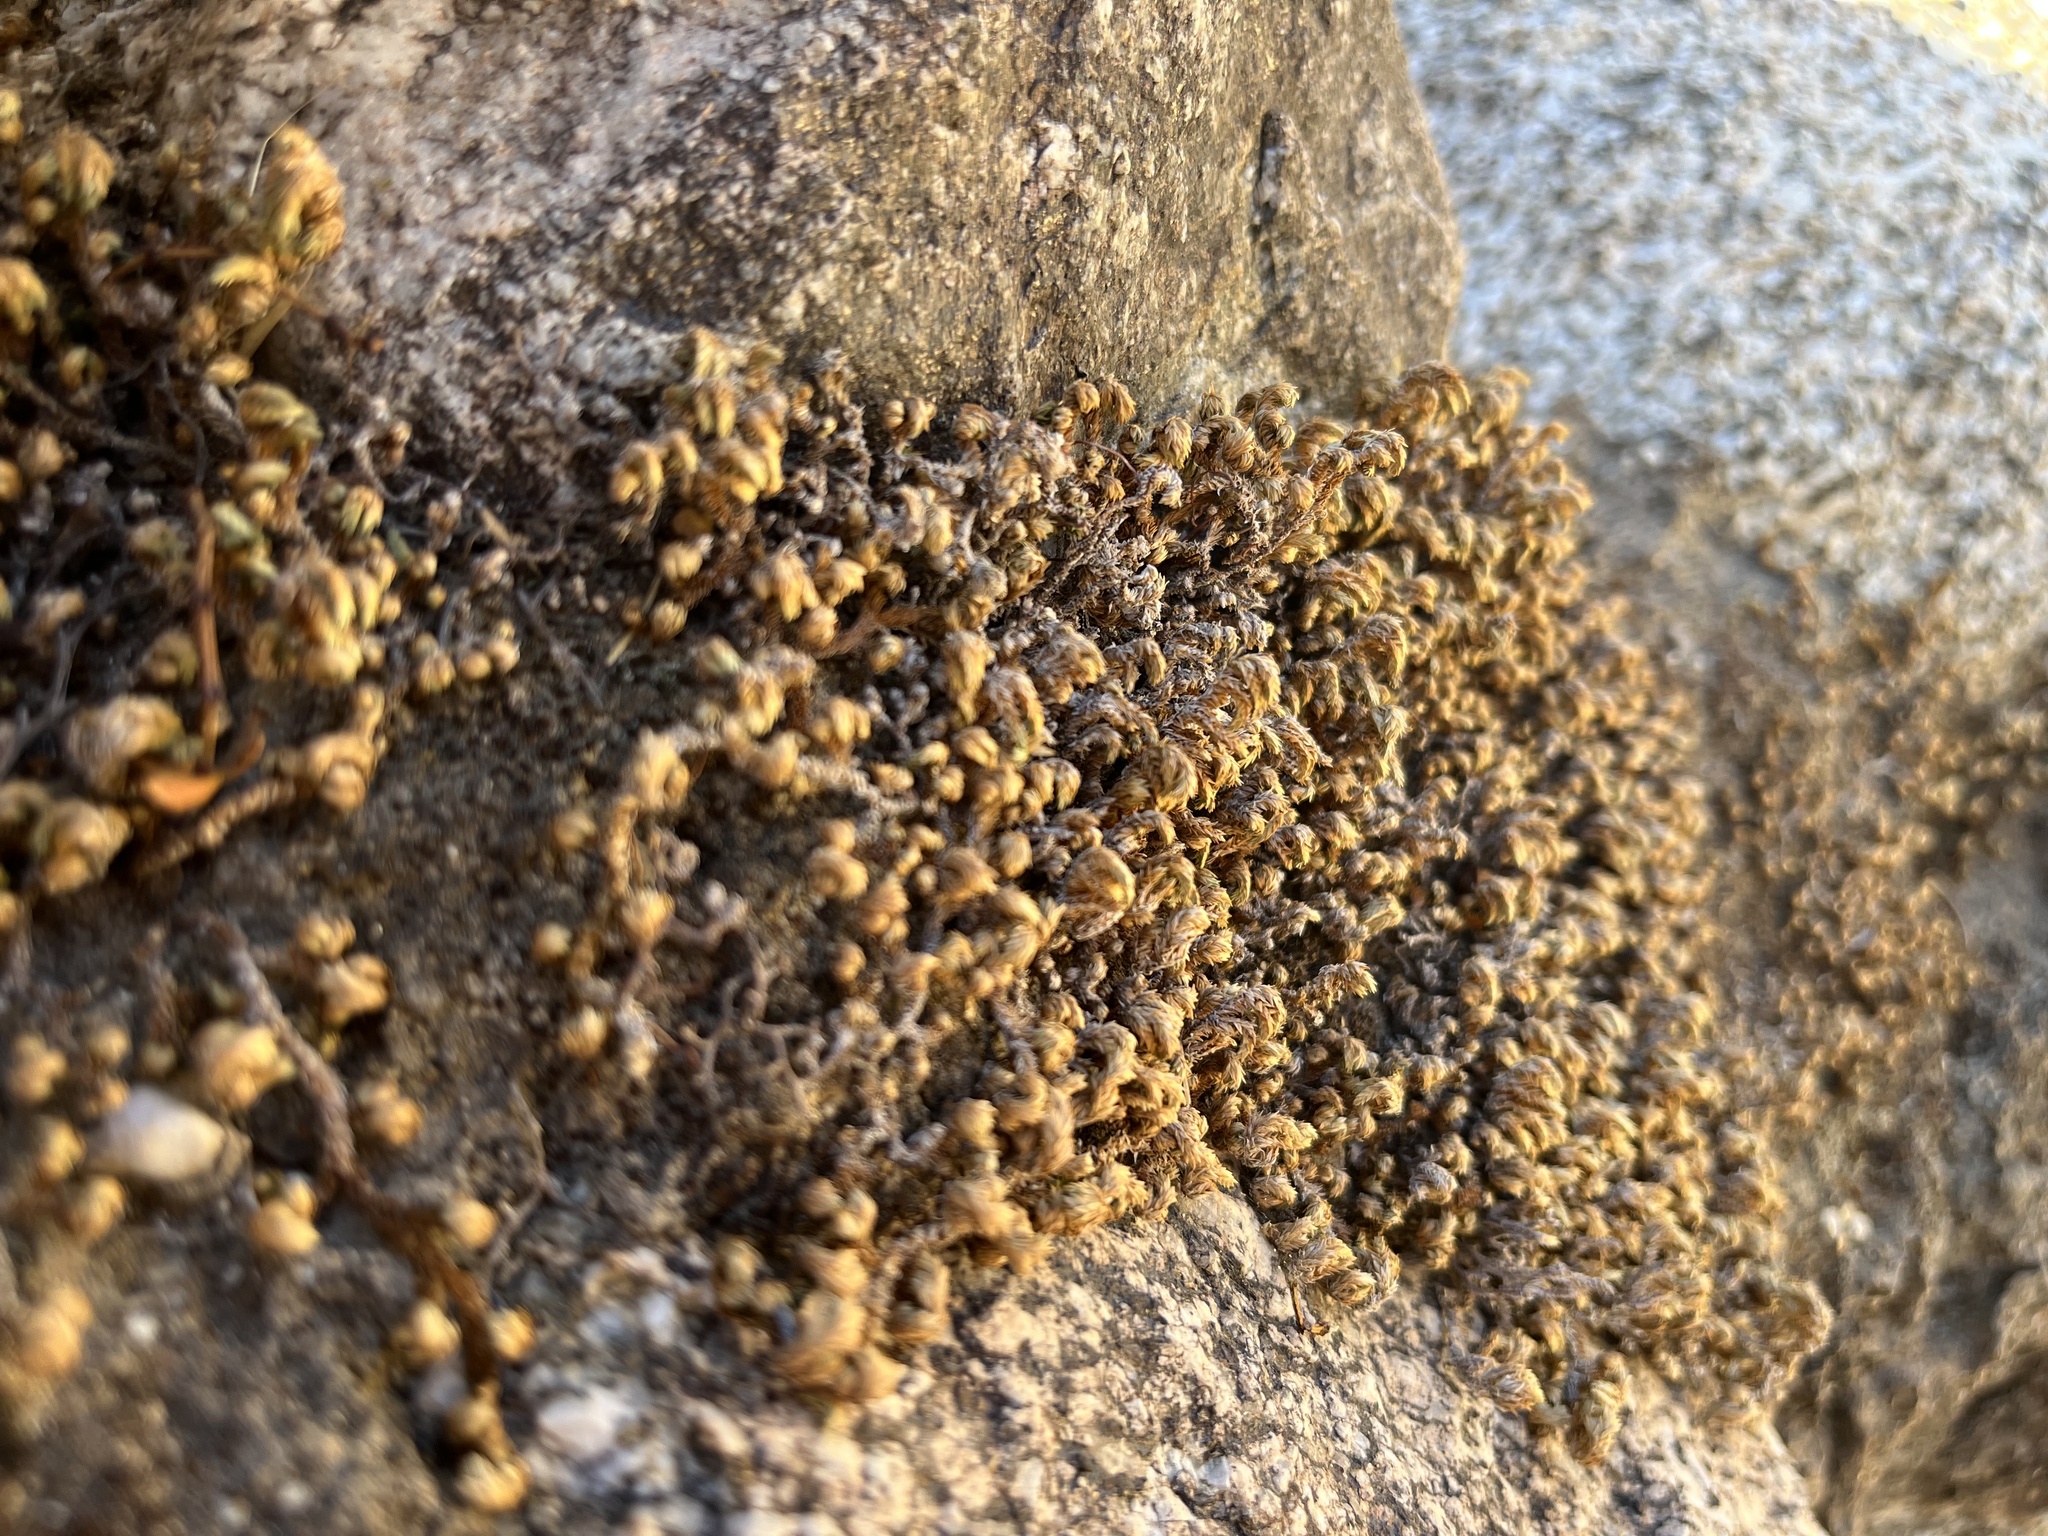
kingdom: Plantae
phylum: Tracheophyta
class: Lycopodiopsida
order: Selaginellales
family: Selaginellaceae
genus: Selaginella
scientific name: Selaginella eremophila
